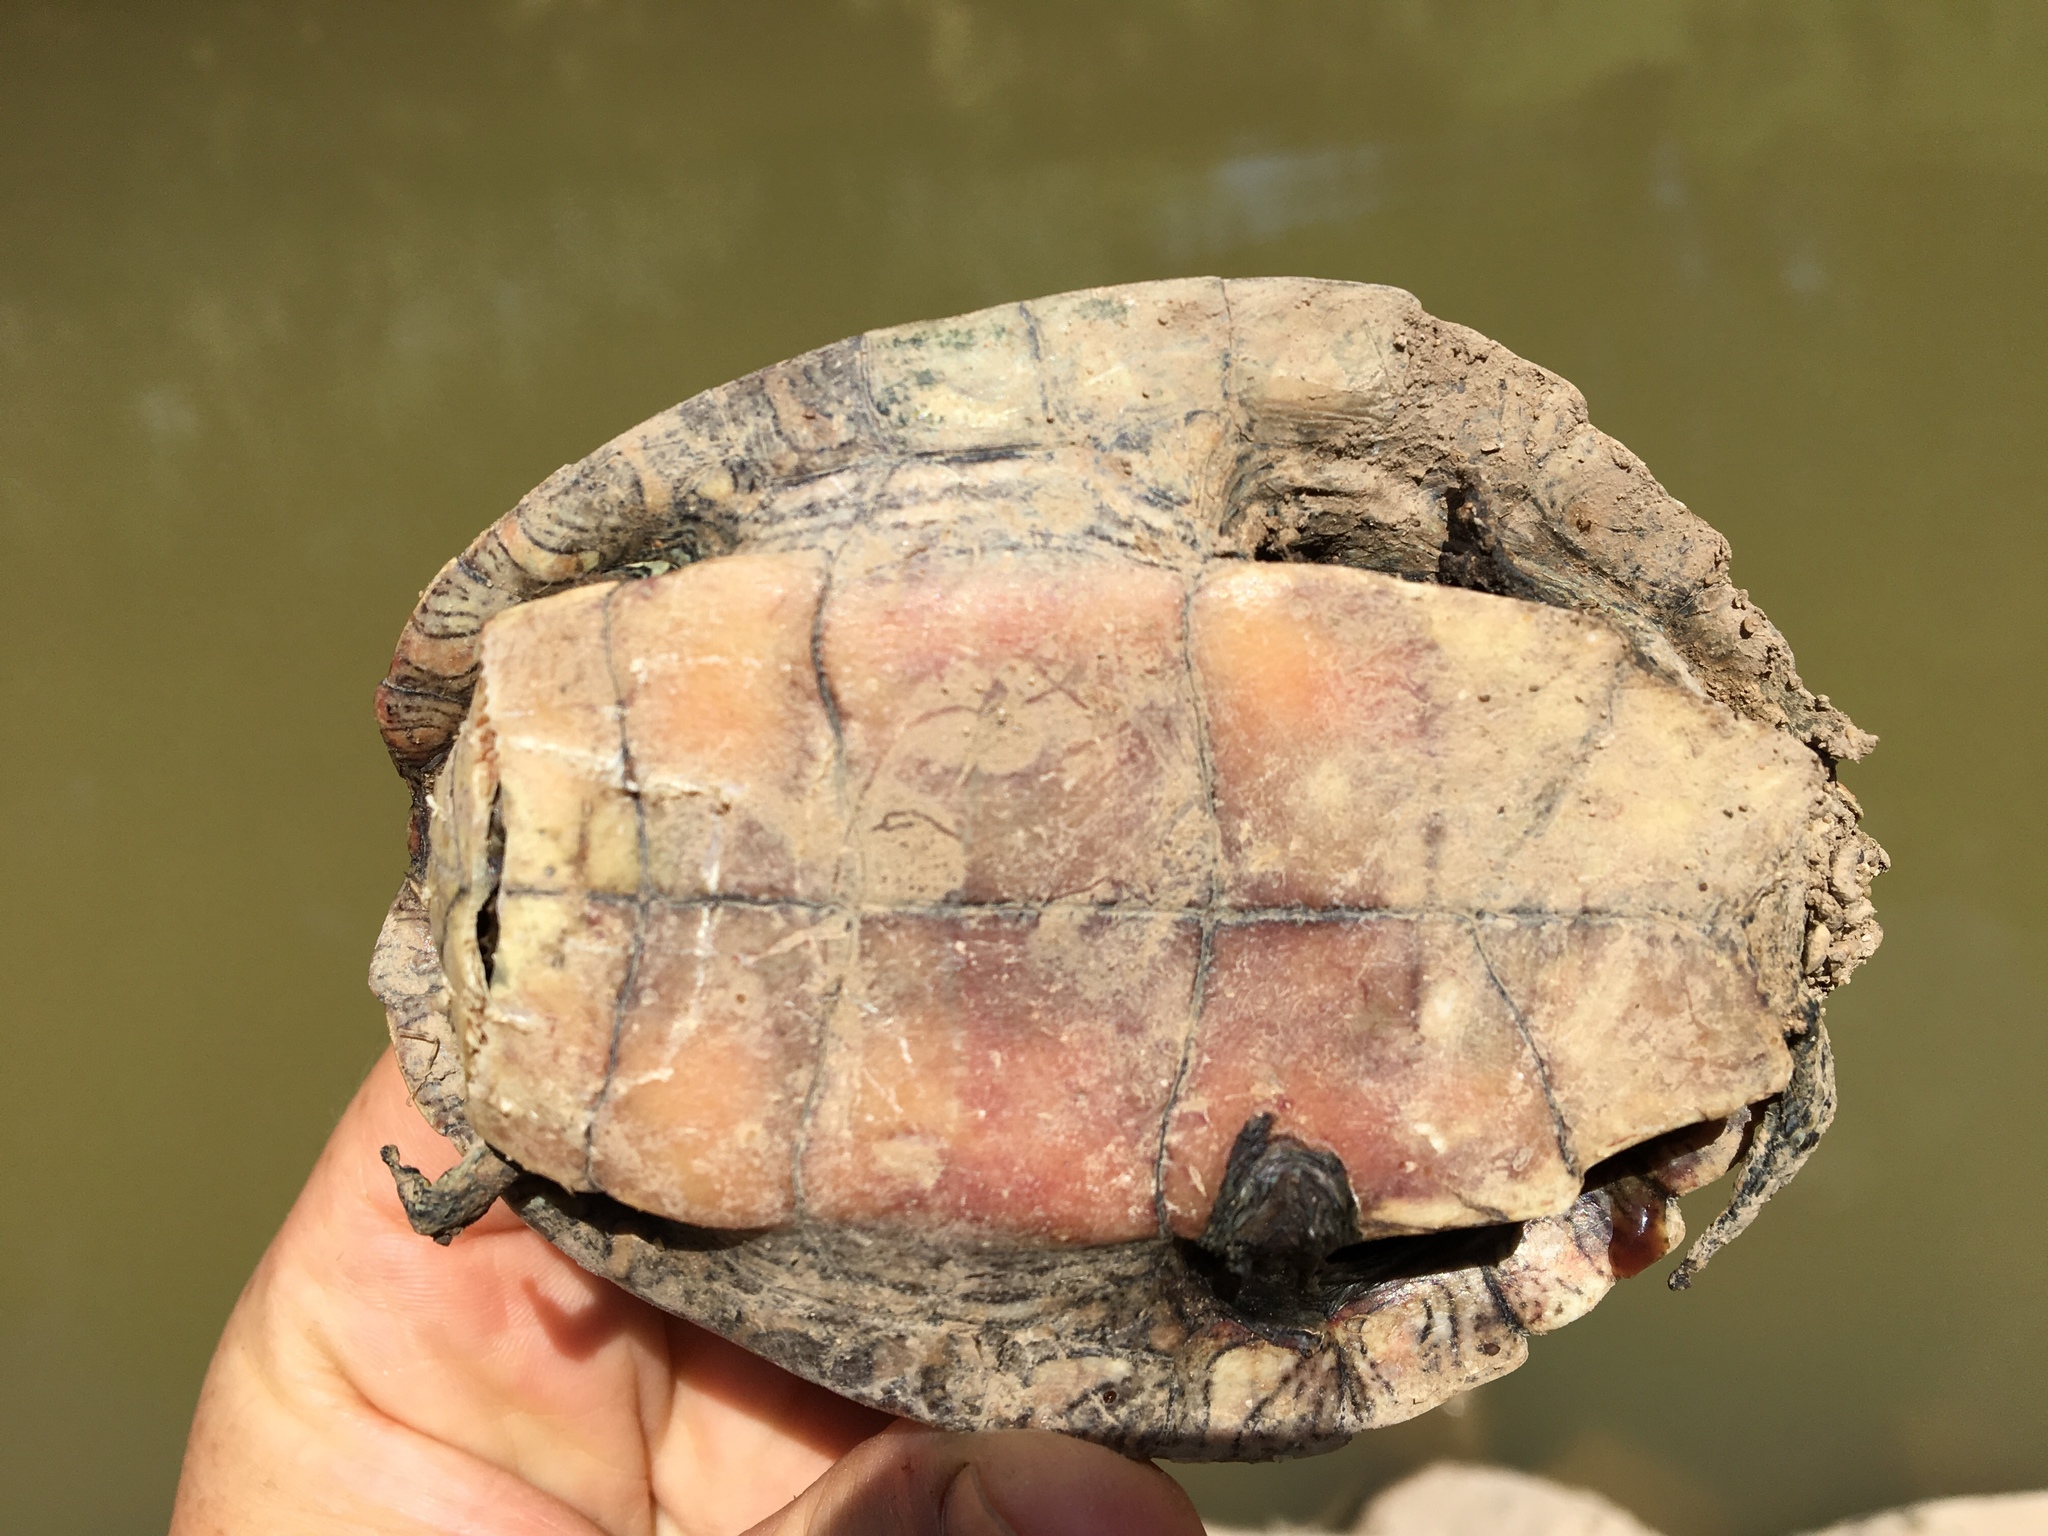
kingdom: Animalia
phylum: Chordata
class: Testudines
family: Emydidae
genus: Graptemys
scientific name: Graptemys versa
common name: Texas map turtle
